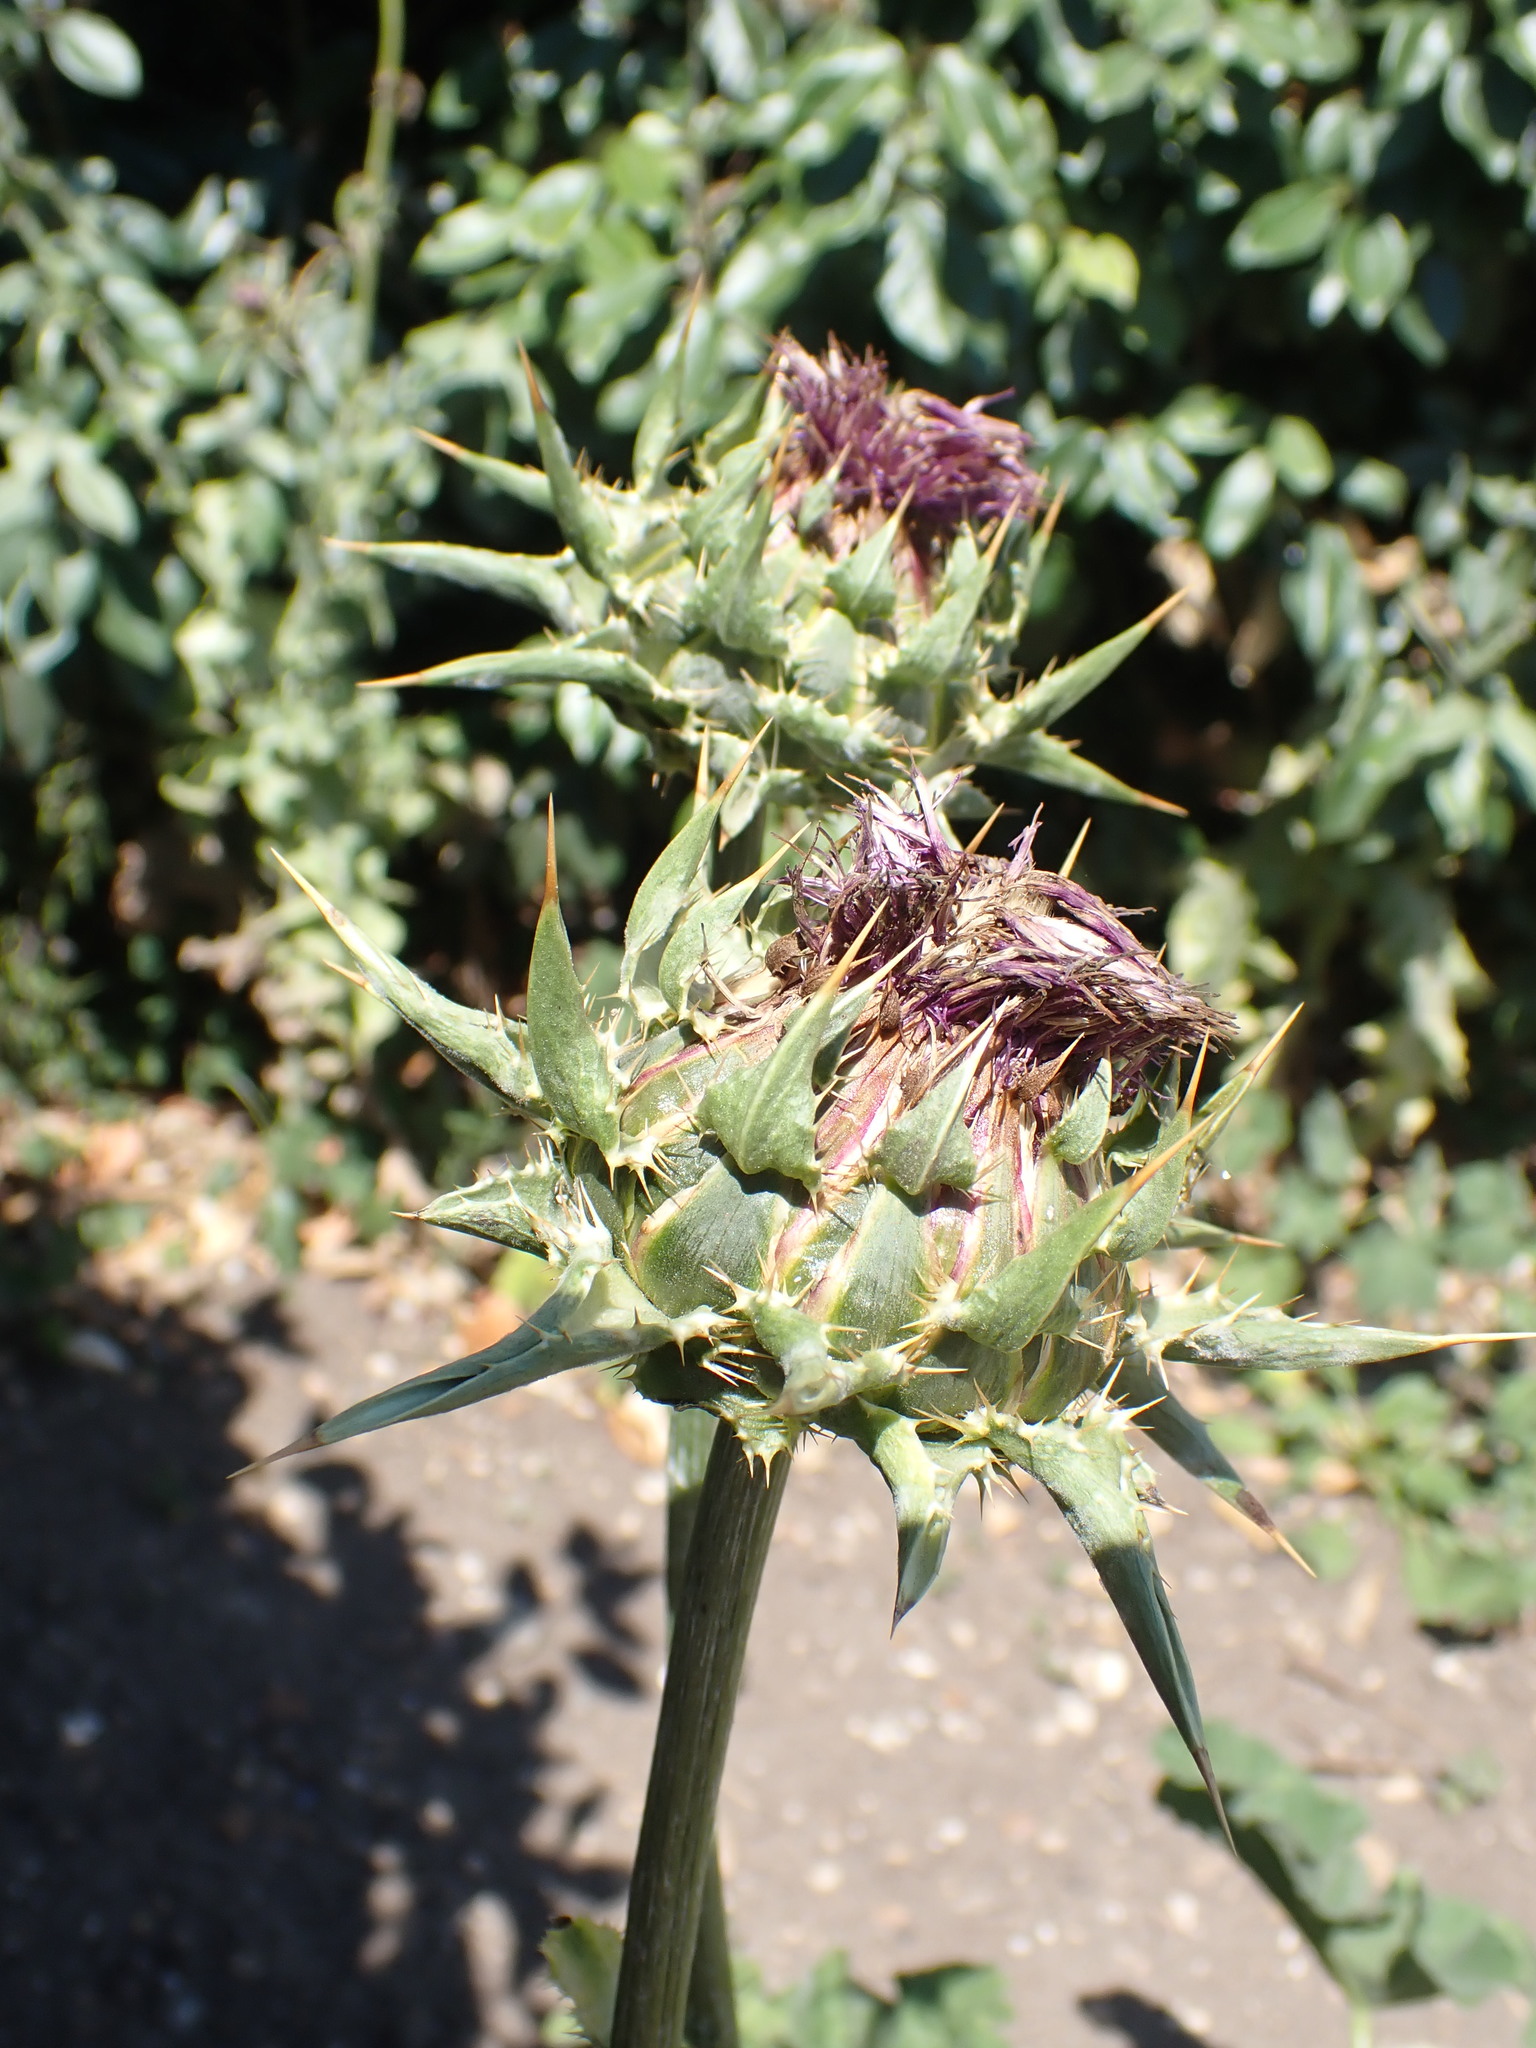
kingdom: Plantae
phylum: Tracheophyta
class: Magnoliopsida
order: Asterales
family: Asteraceae
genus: Silybum
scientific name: Silybum marianum
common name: Milk thistle
